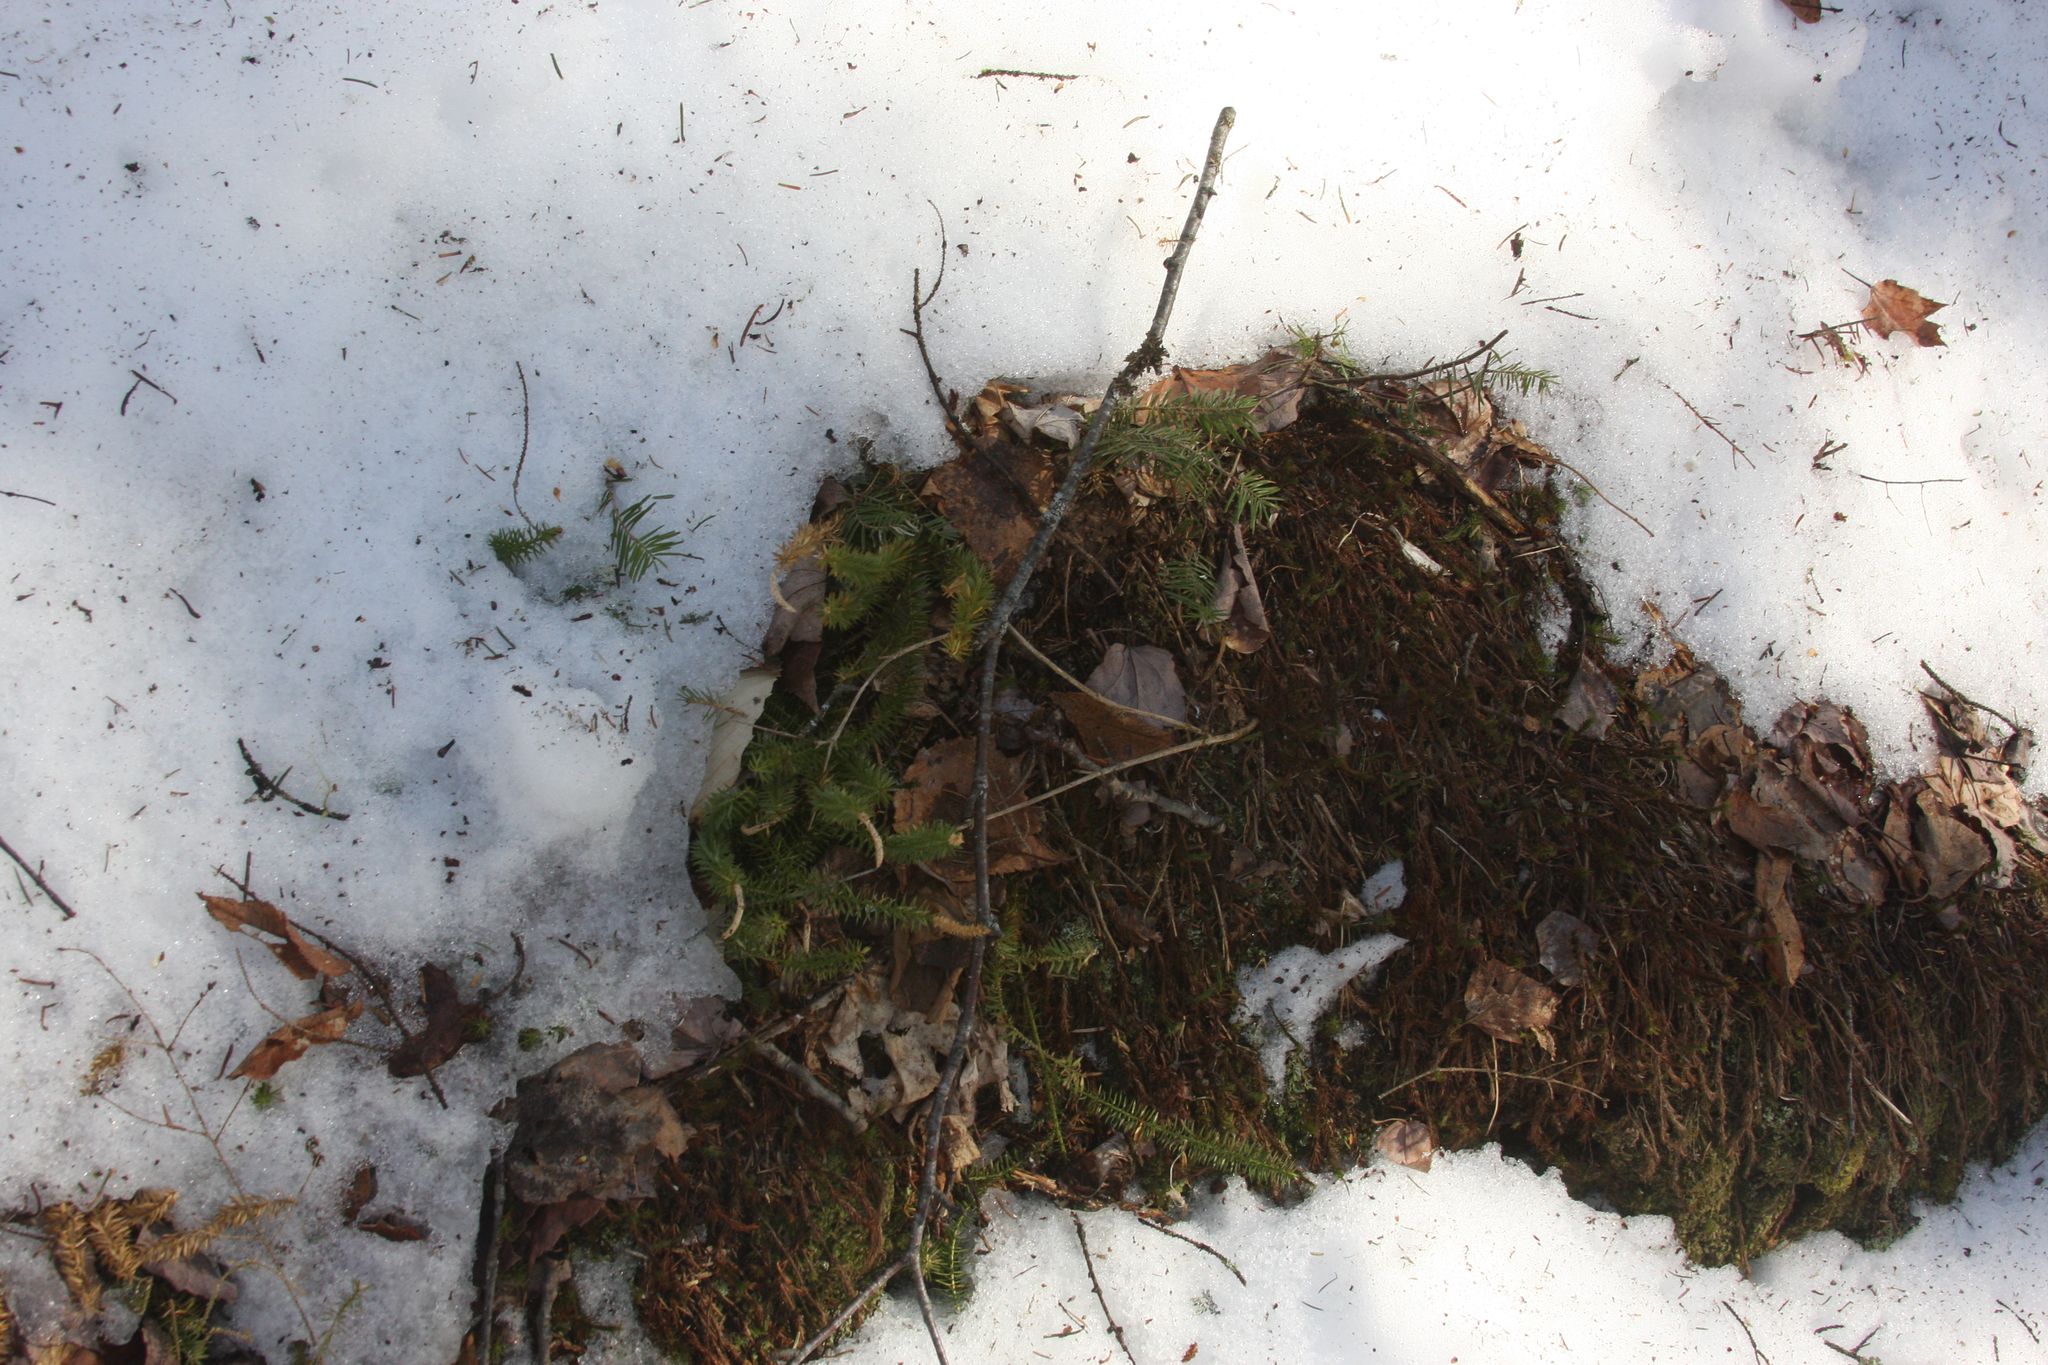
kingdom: Plantae
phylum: Tracheophyta
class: Lycopodiopsida
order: Lycopodiales
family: Lycopodiaceae
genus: Spinulum
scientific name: Spinulum annotinum
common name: Interrupted club-moss
